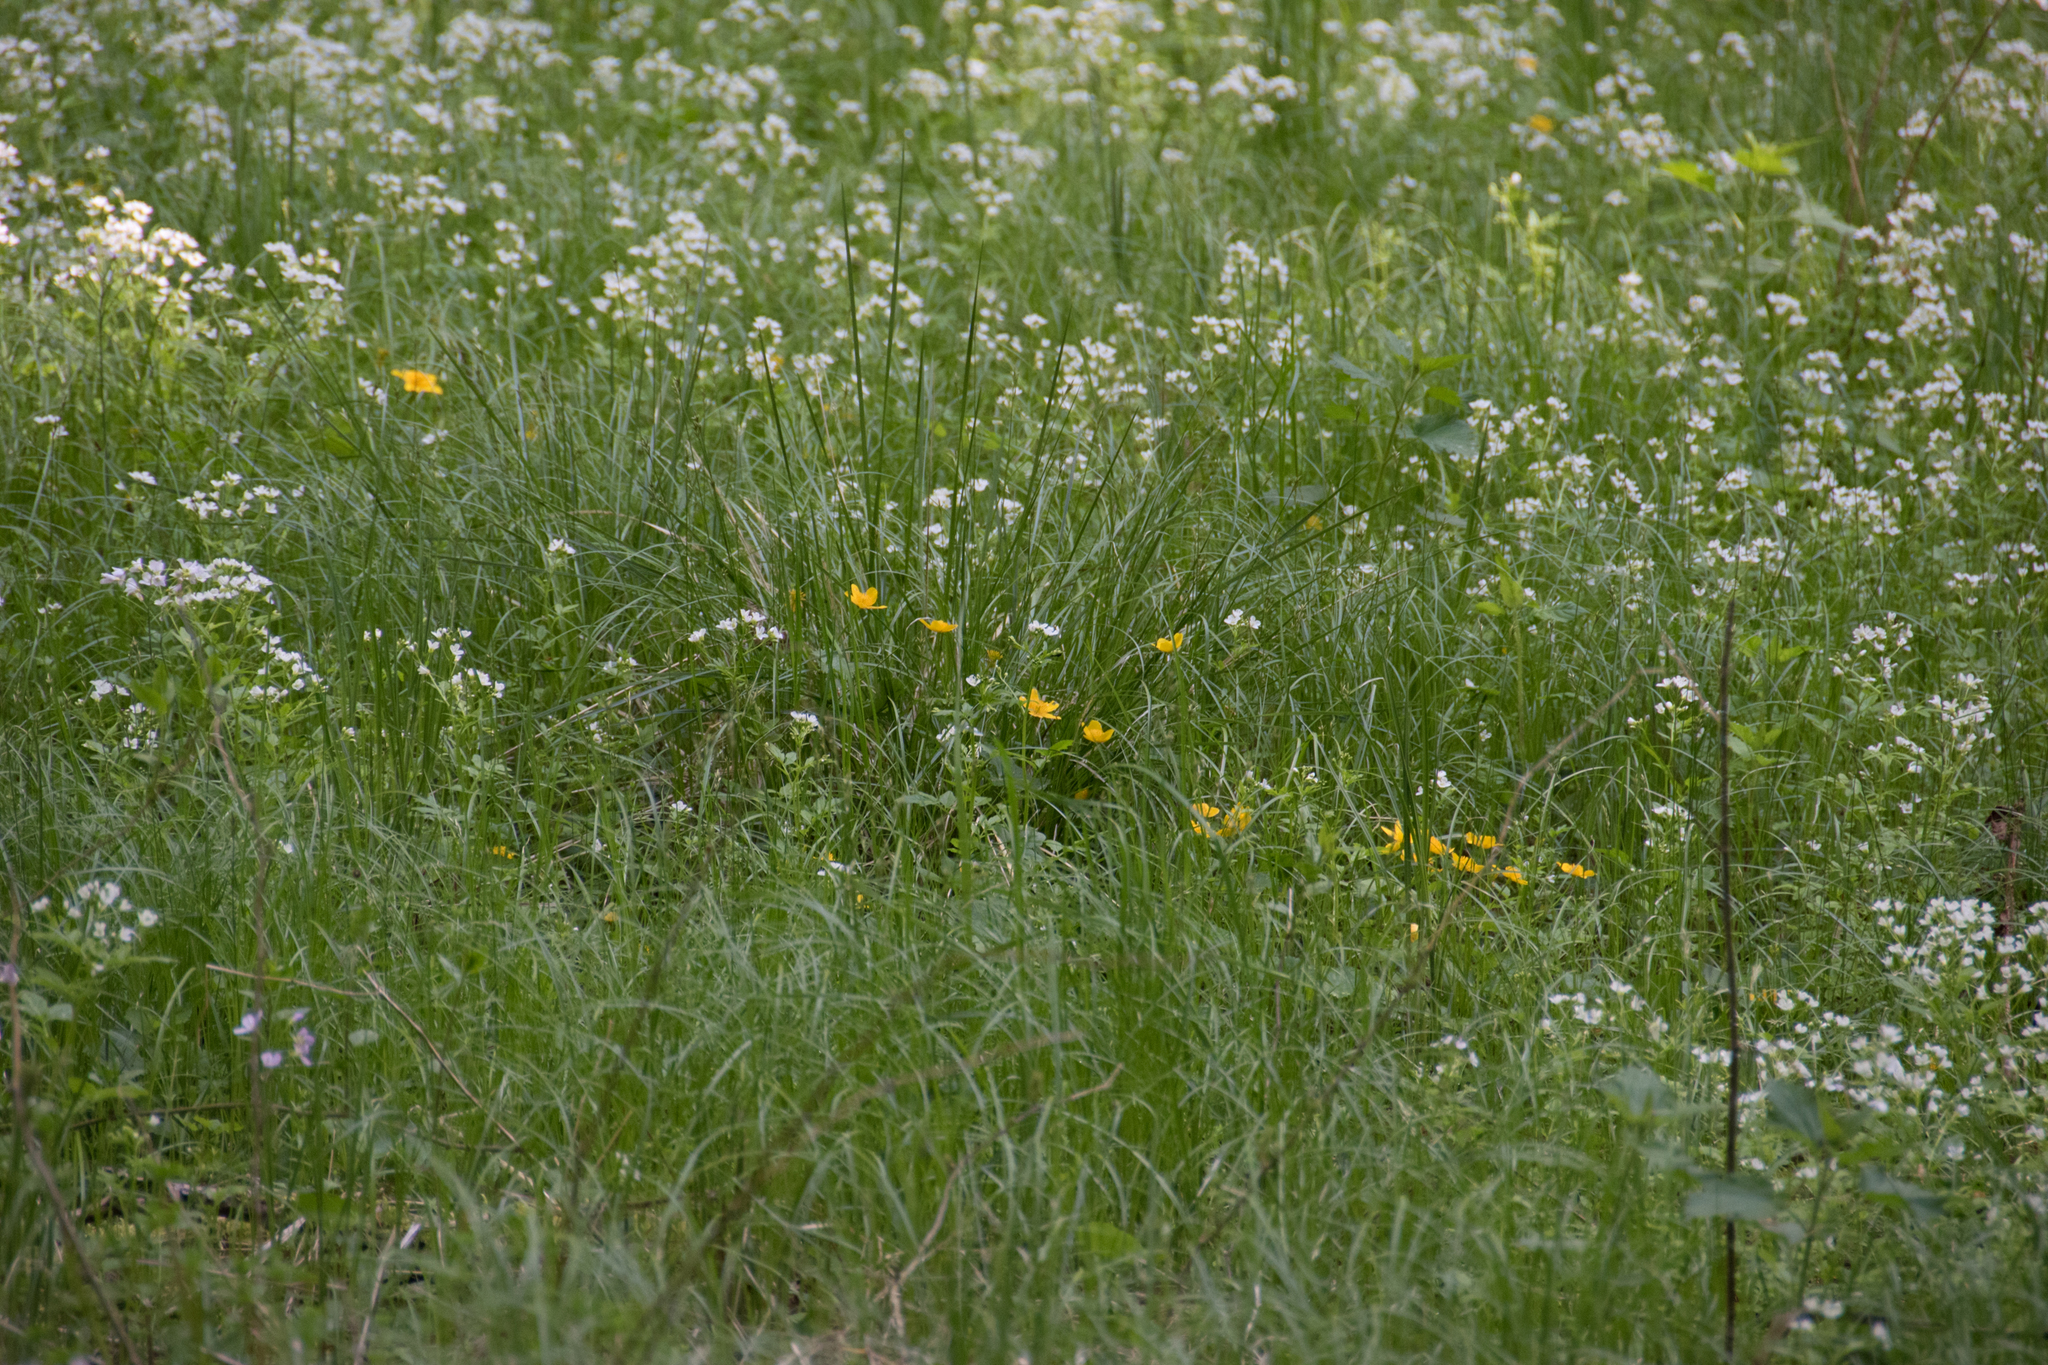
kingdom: Plantae
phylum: Tracheophyta
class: Magnoliopsida
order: Ranunculales
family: Ranunculaceae
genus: Caltha
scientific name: Caltha palustris
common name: Marsh marigold
